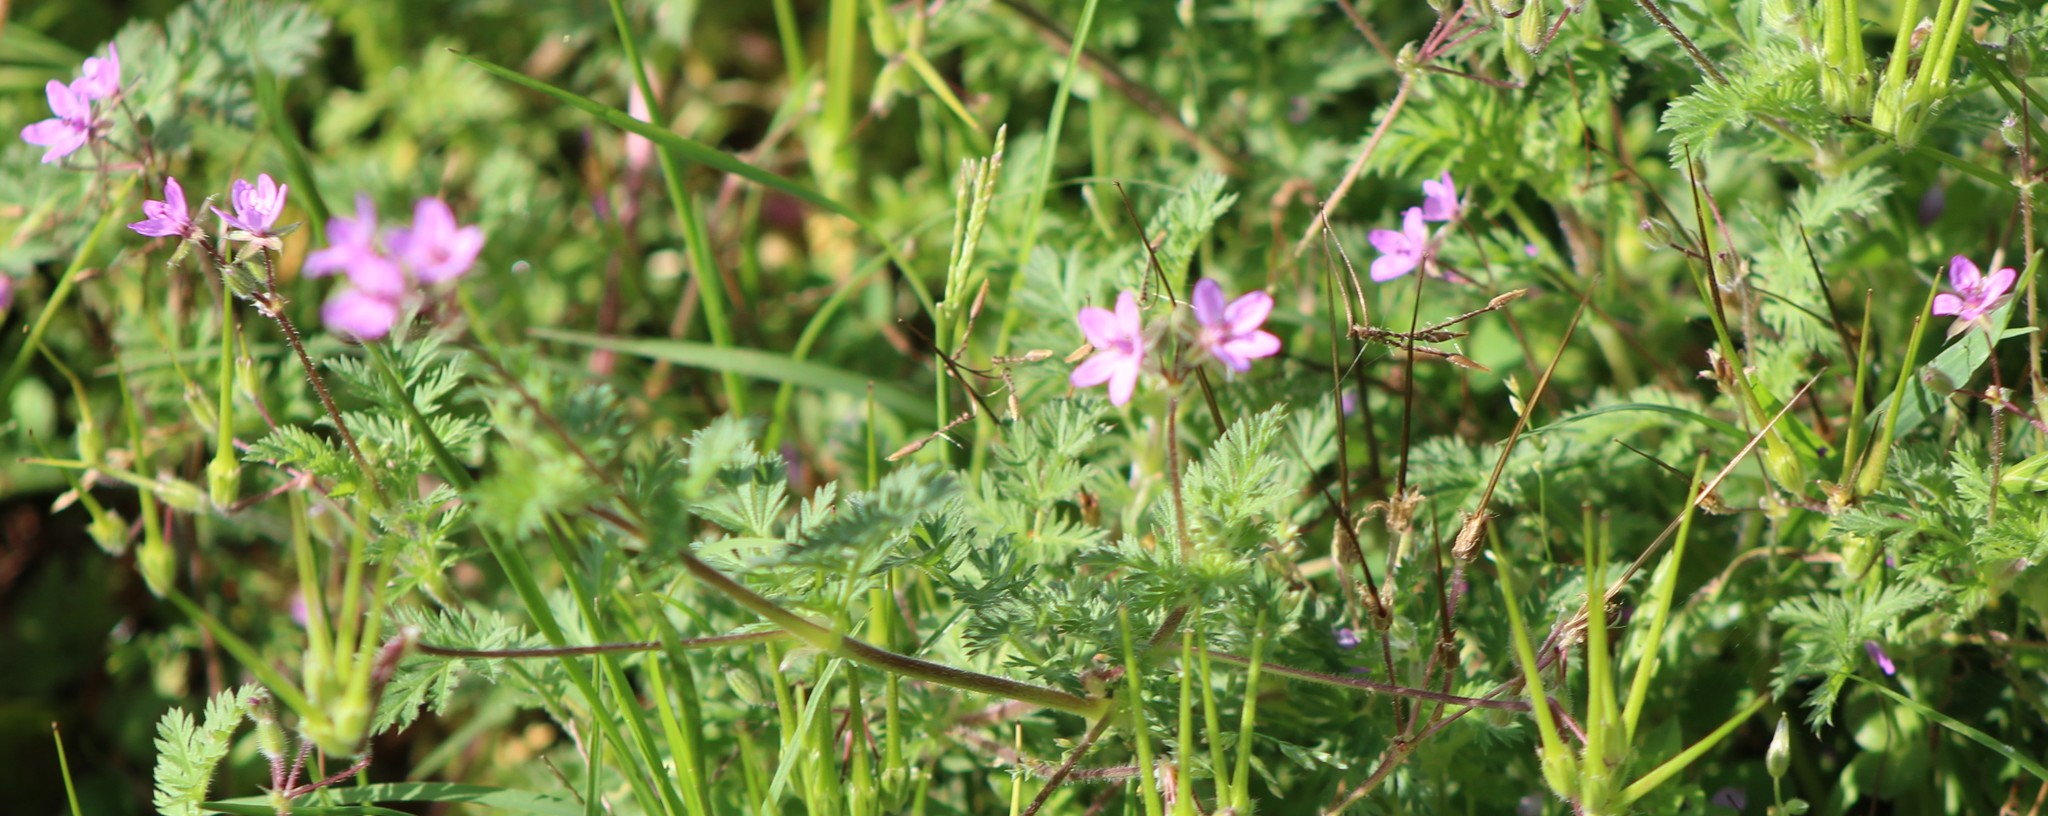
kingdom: Plantae
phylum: Tracheophyta
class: Magnoliopsida
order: Geraniales
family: Geraniaceae
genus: Erodium
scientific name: Erodium cicutarium
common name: Common stork's-bill
